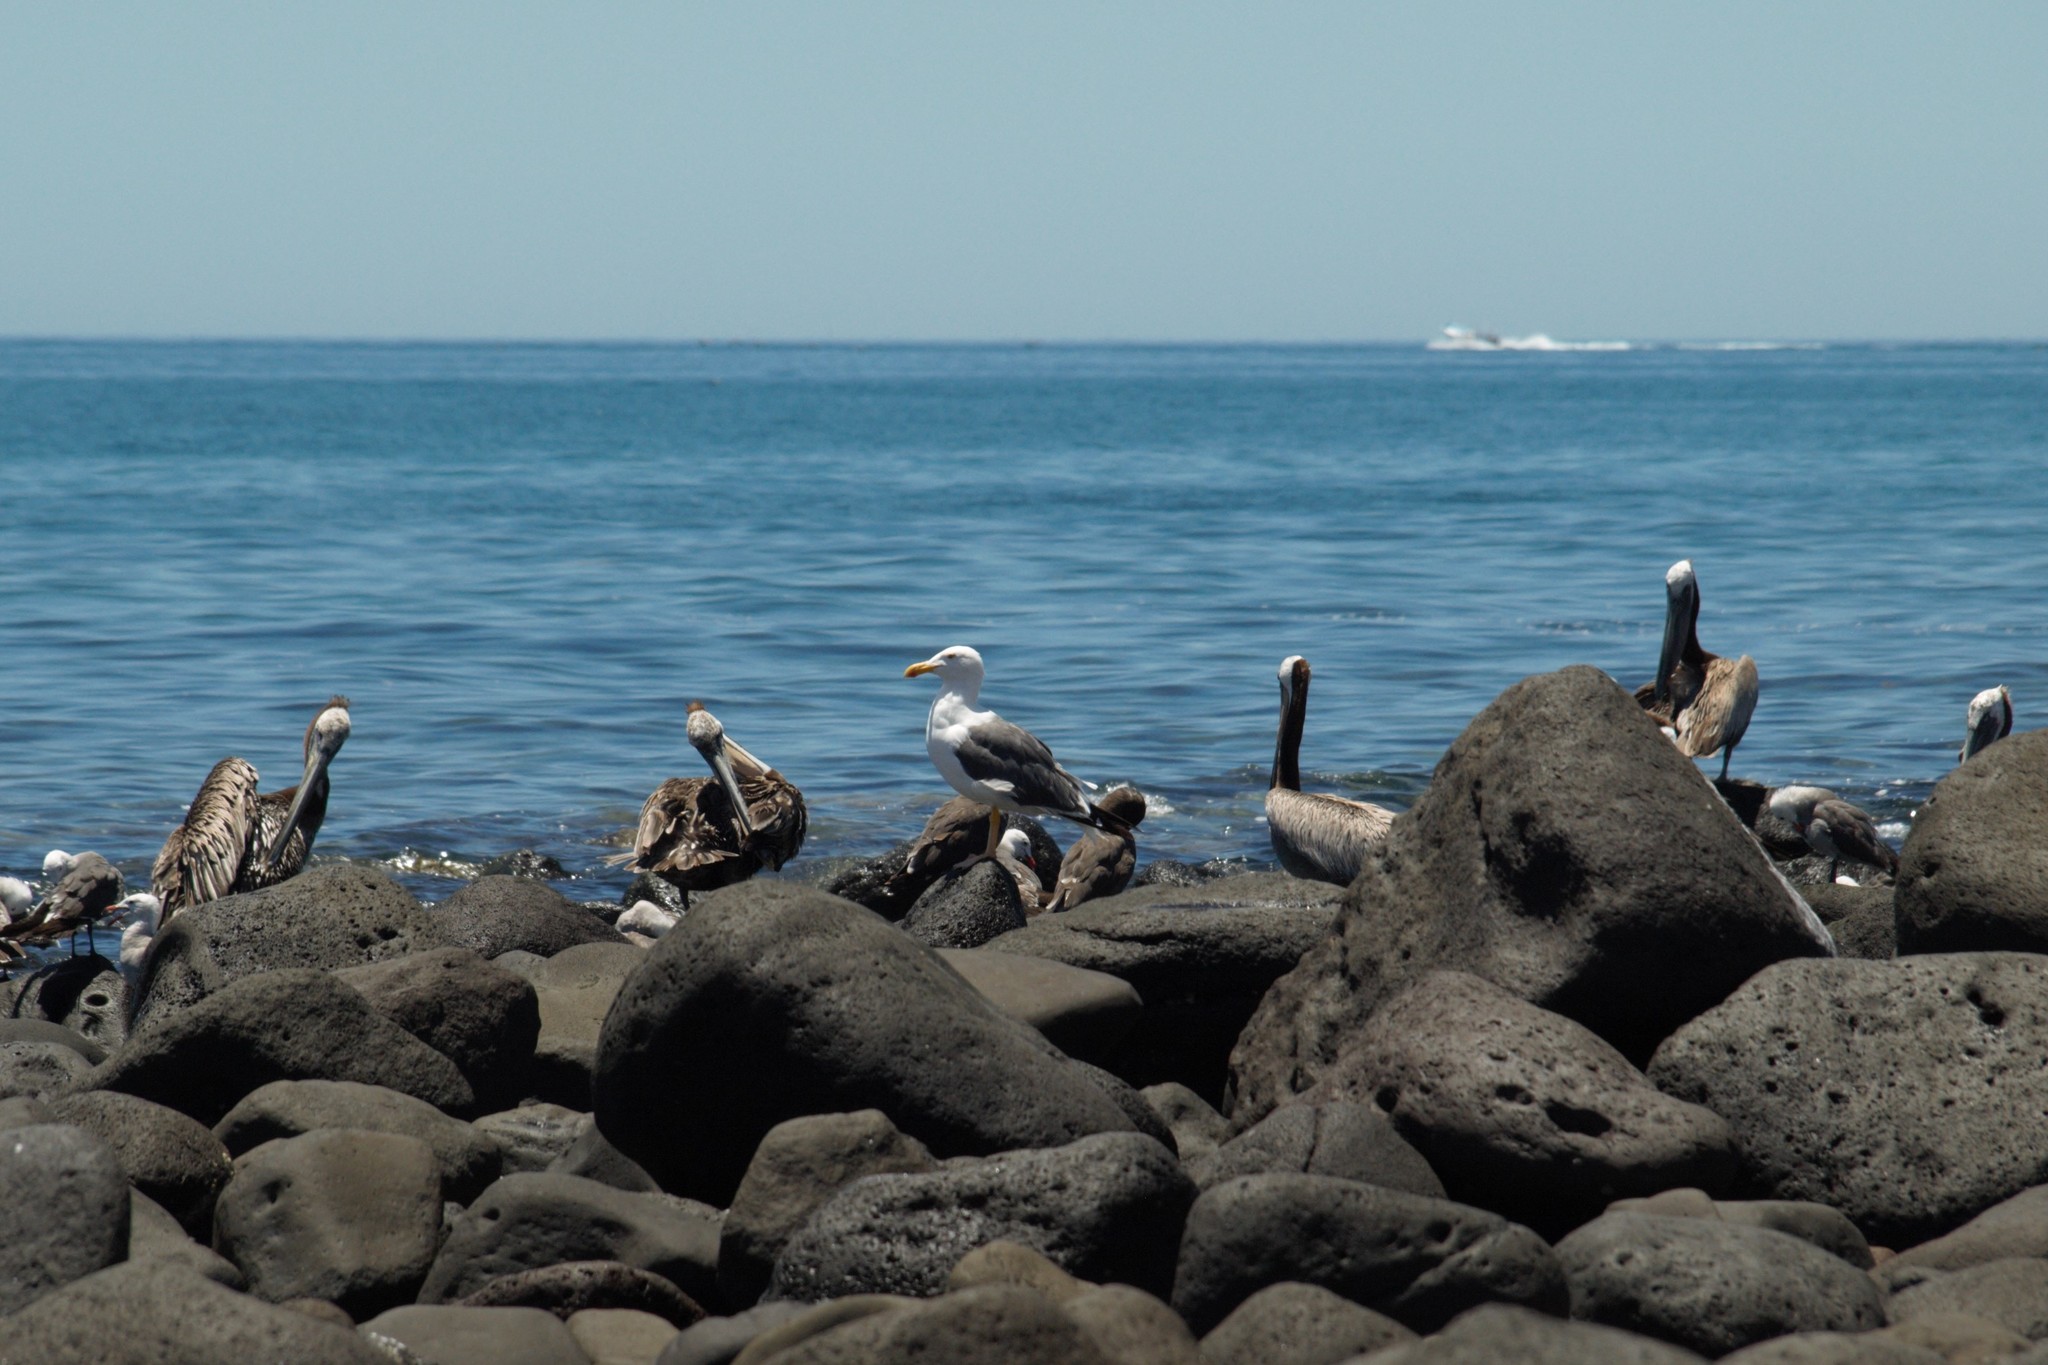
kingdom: Animalia
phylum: Chordata
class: Aves
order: Charadriiformes
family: Laridae
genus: Larus
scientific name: Larus livens
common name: Yellow-footed gull
